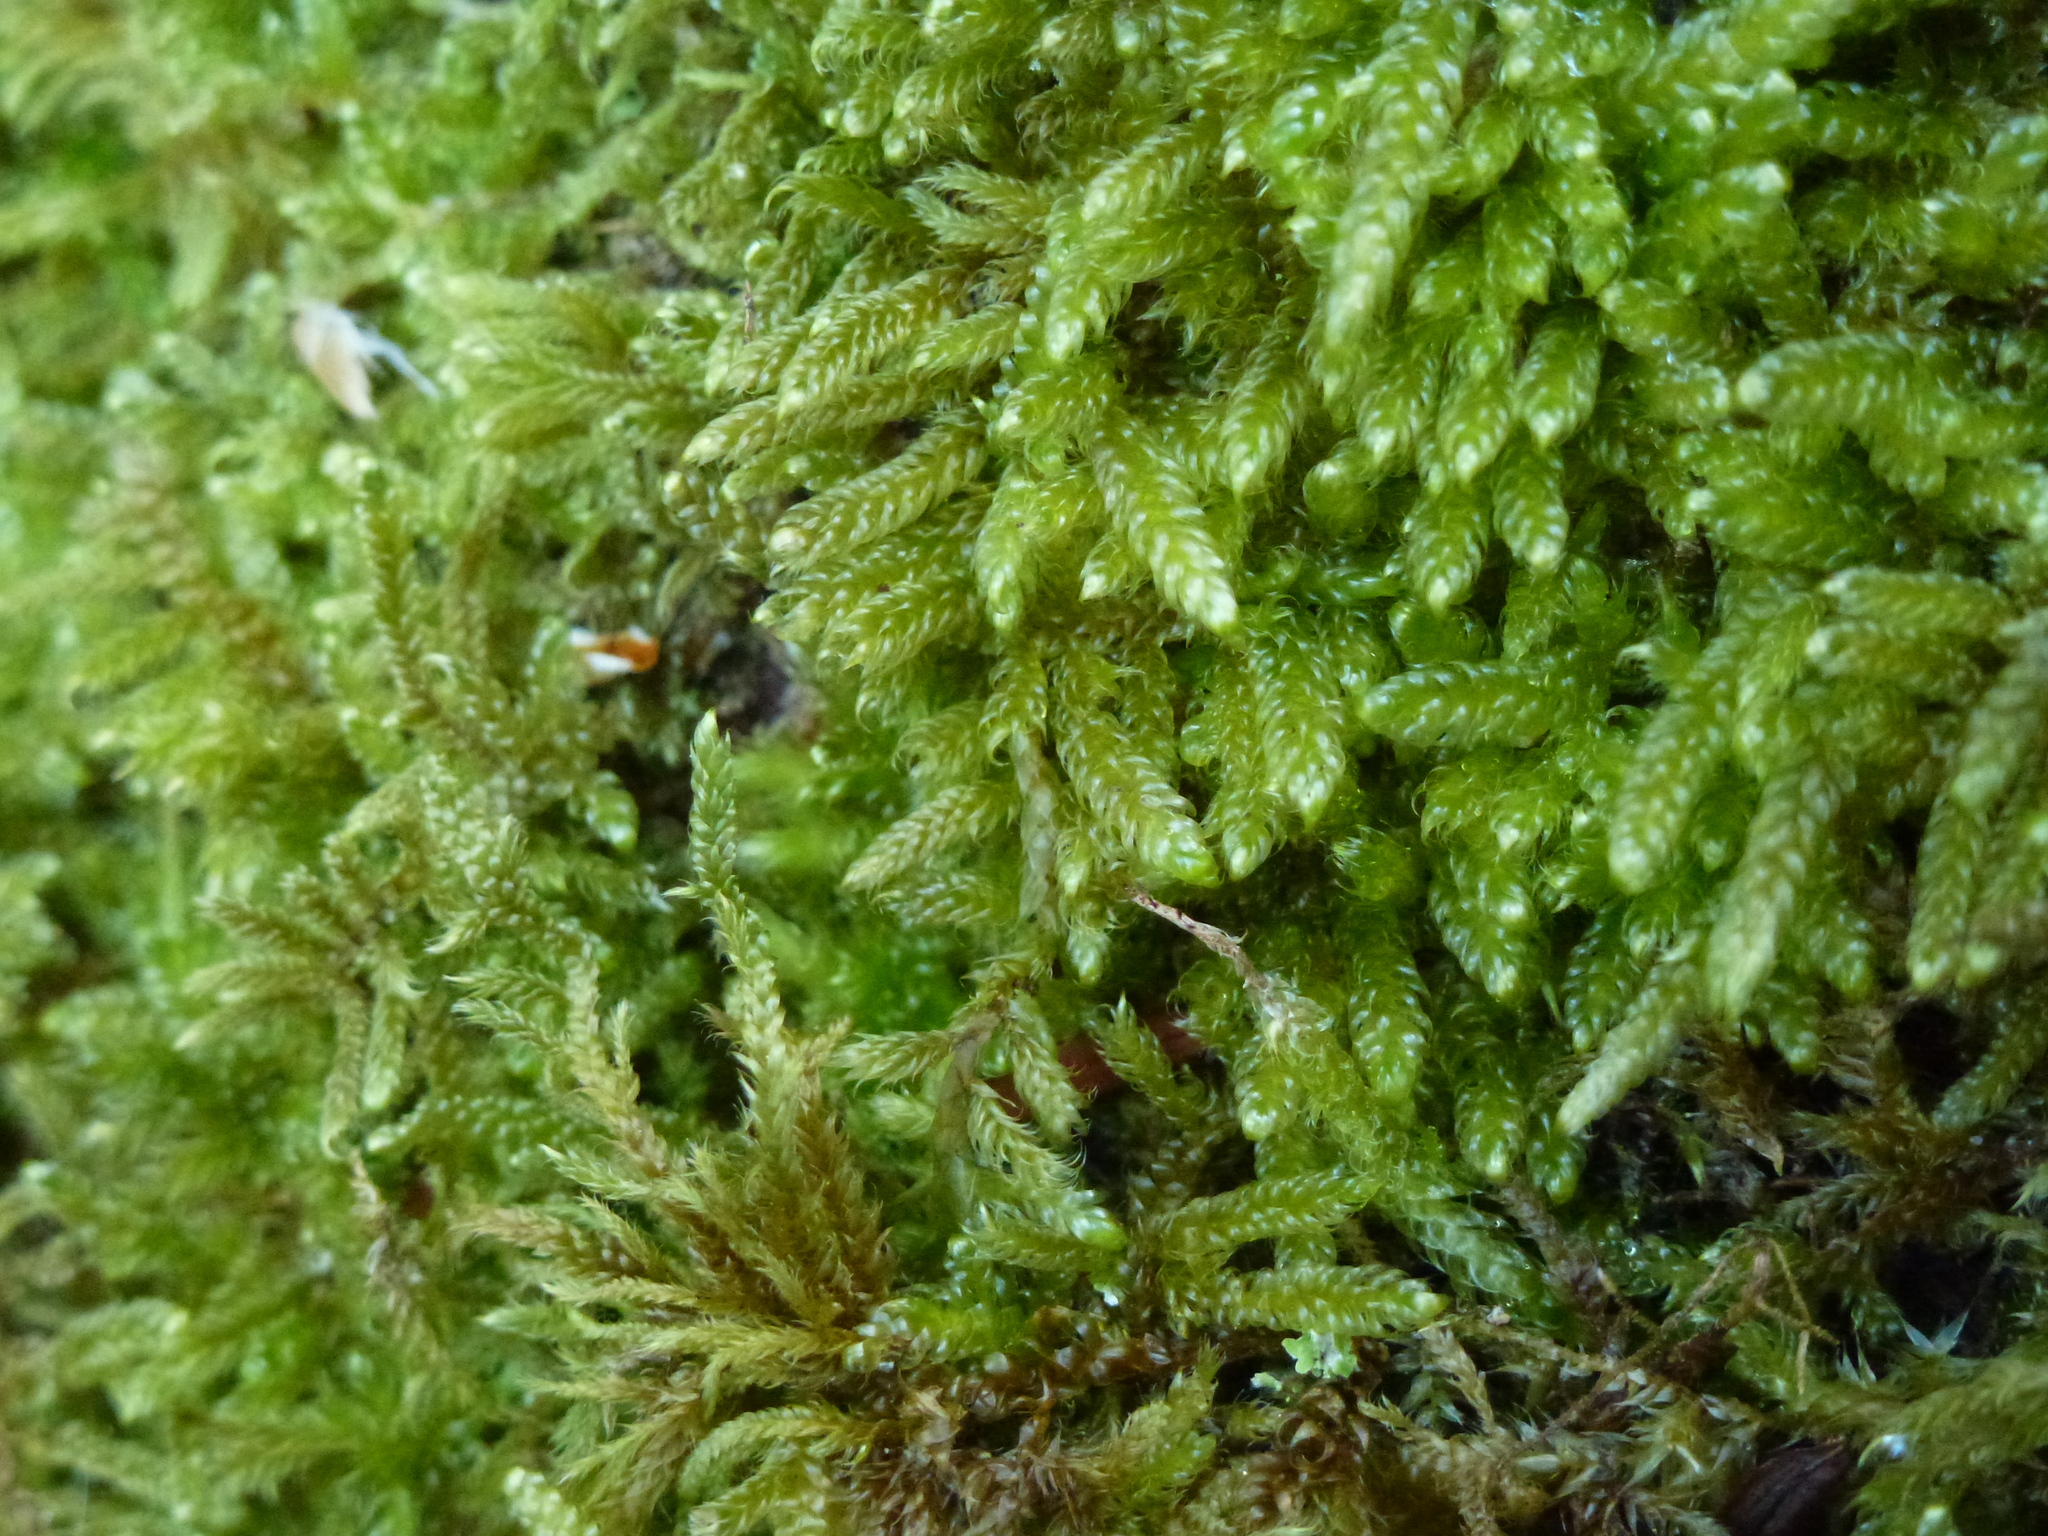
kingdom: Plantae
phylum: Bryophyta
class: Bryopsida
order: Hypnales
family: Hypnaceae
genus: Hypnum
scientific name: Hypnum cupressiforme
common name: Cypress-leaved plait-moss
